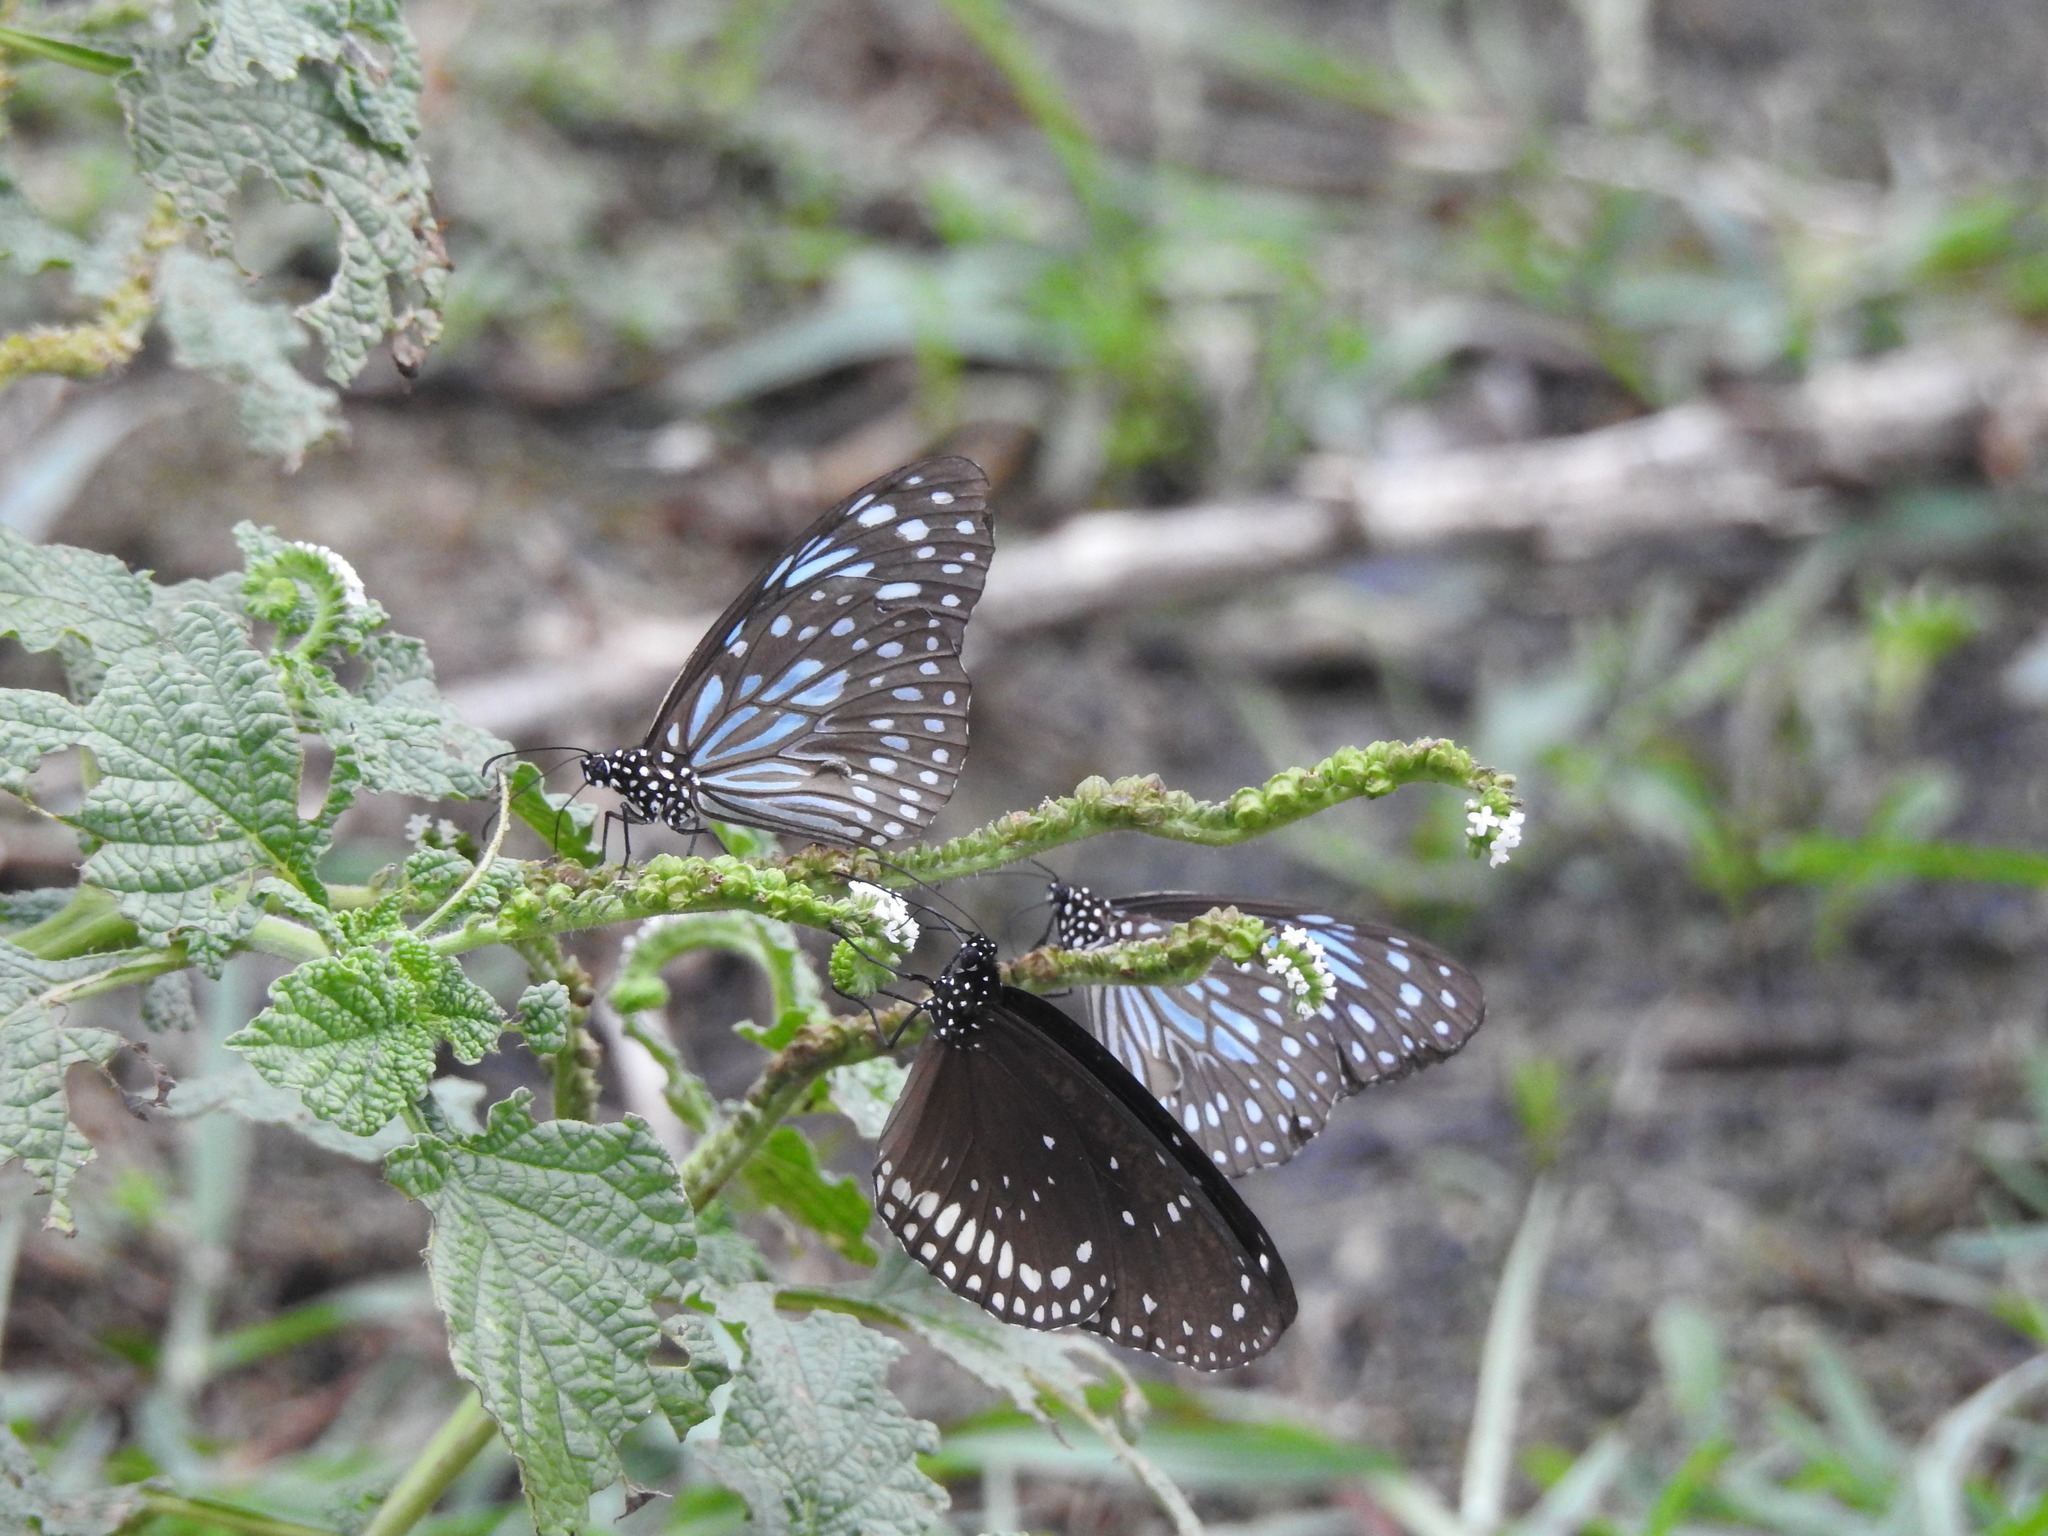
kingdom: Animalia
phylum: Arthropoda
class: Insecta
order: Lepidoptera
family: Nymphalidae
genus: Tirumala
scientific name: Tirumala septentrionis
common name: Dark blue tiger butterfly
